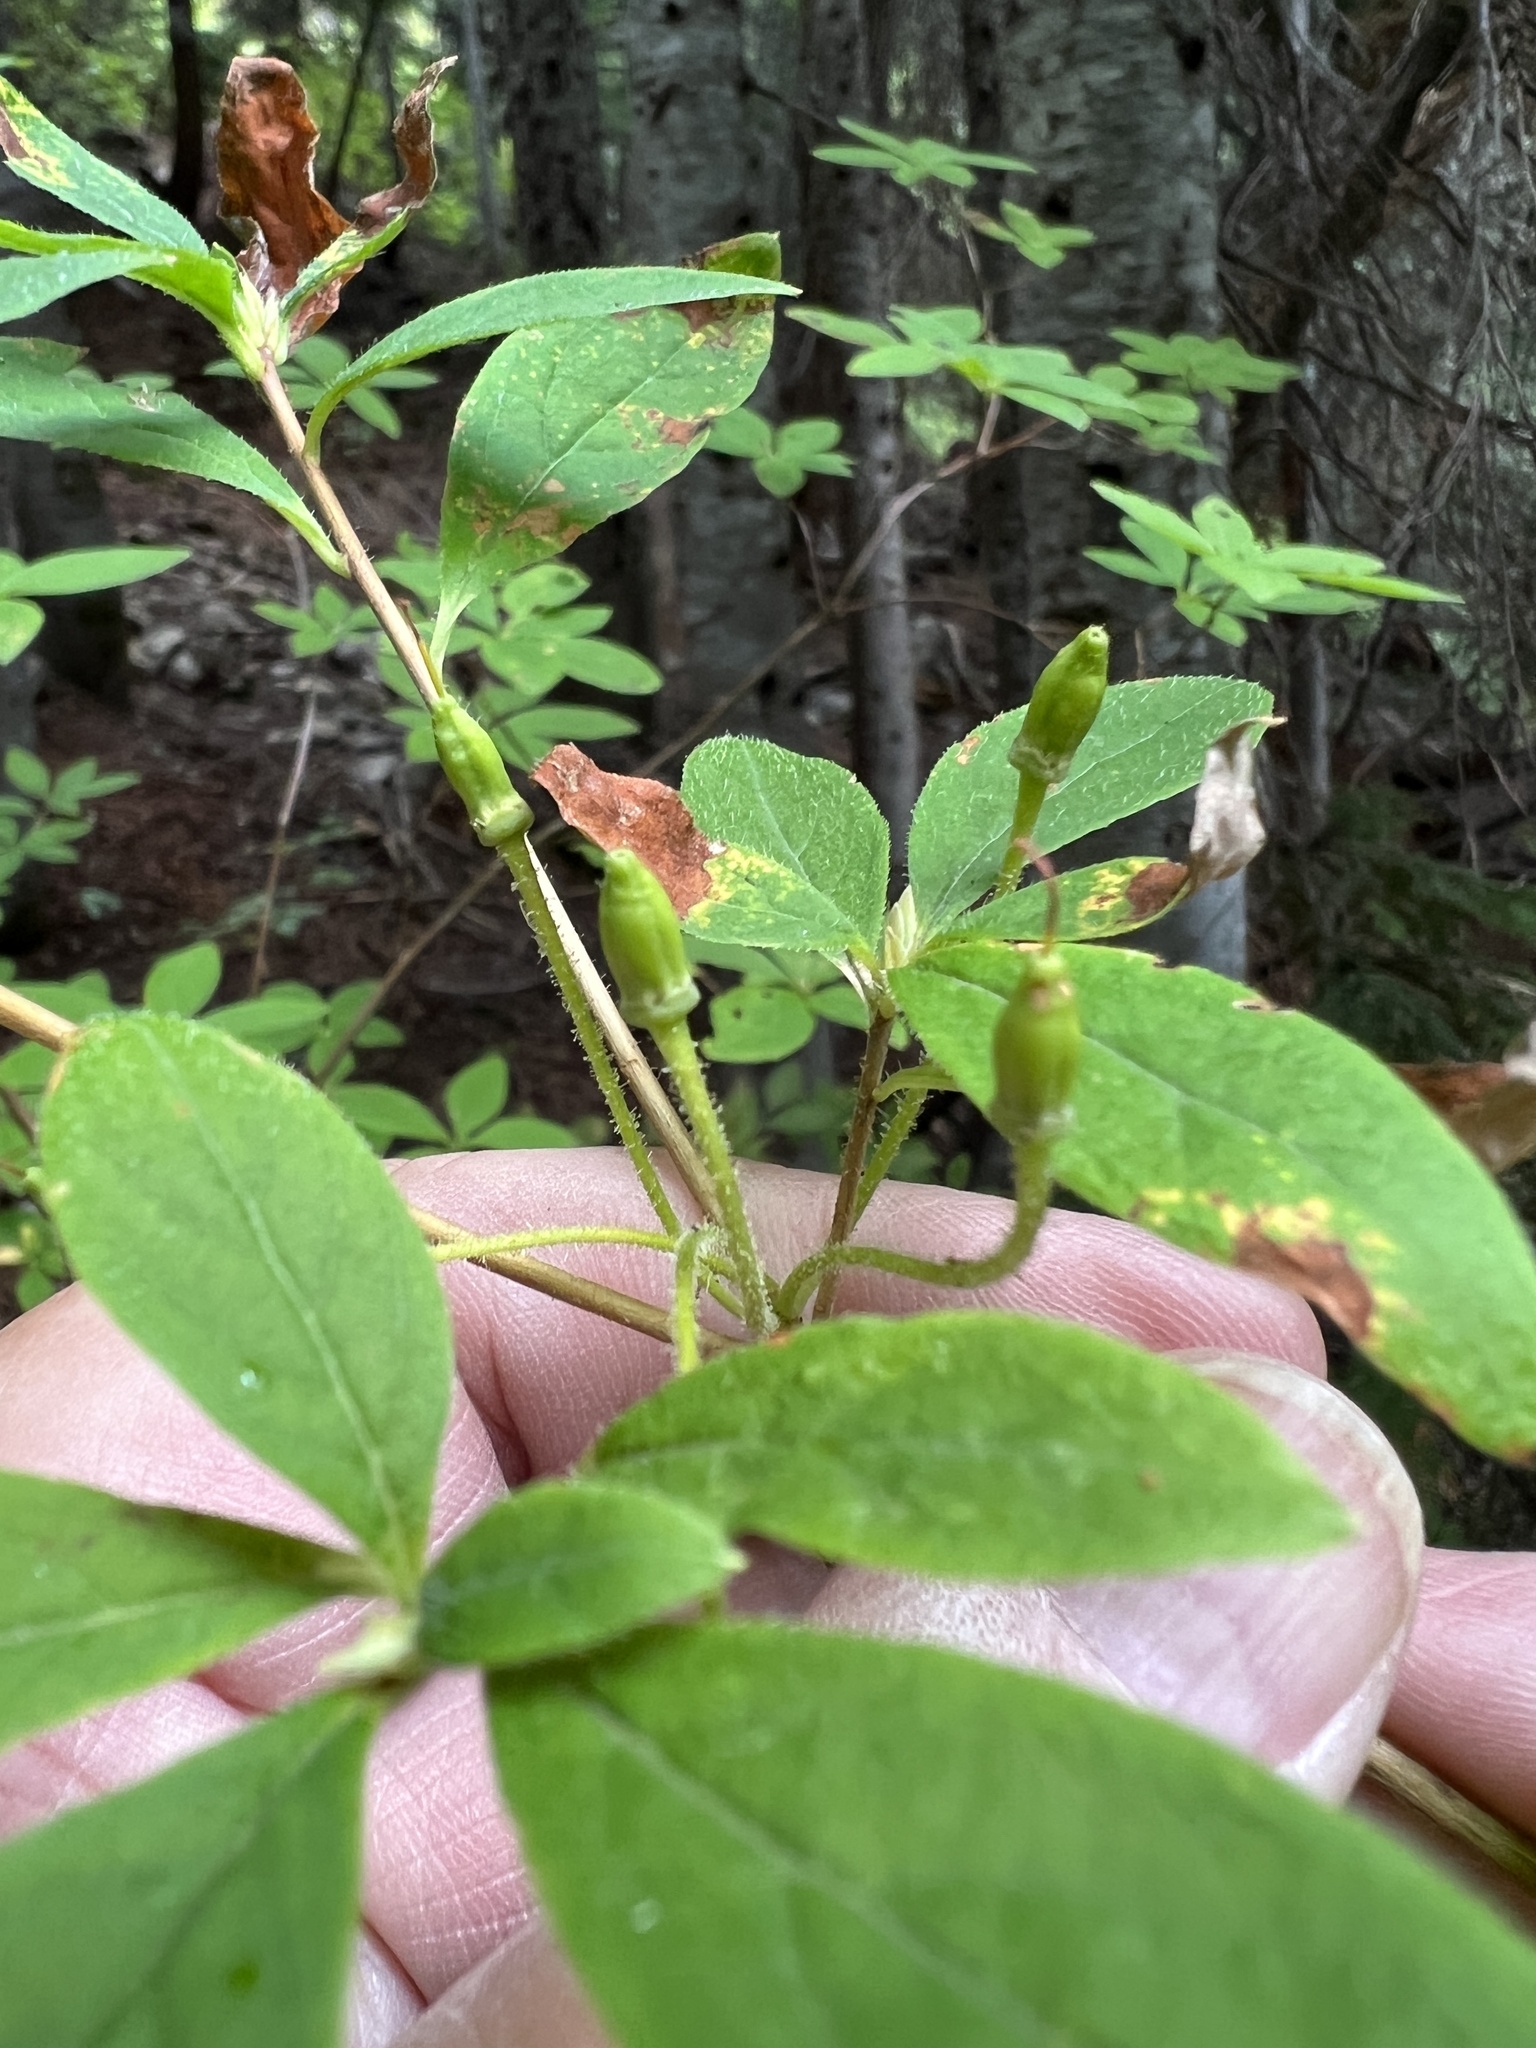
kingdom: Plantae
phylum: Tracheophyta
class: Magnoliopsida
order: Ericales
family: Ericaceae
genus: Rhododendron
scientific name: Rhododendron menziesii
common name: Pacific menziesia
